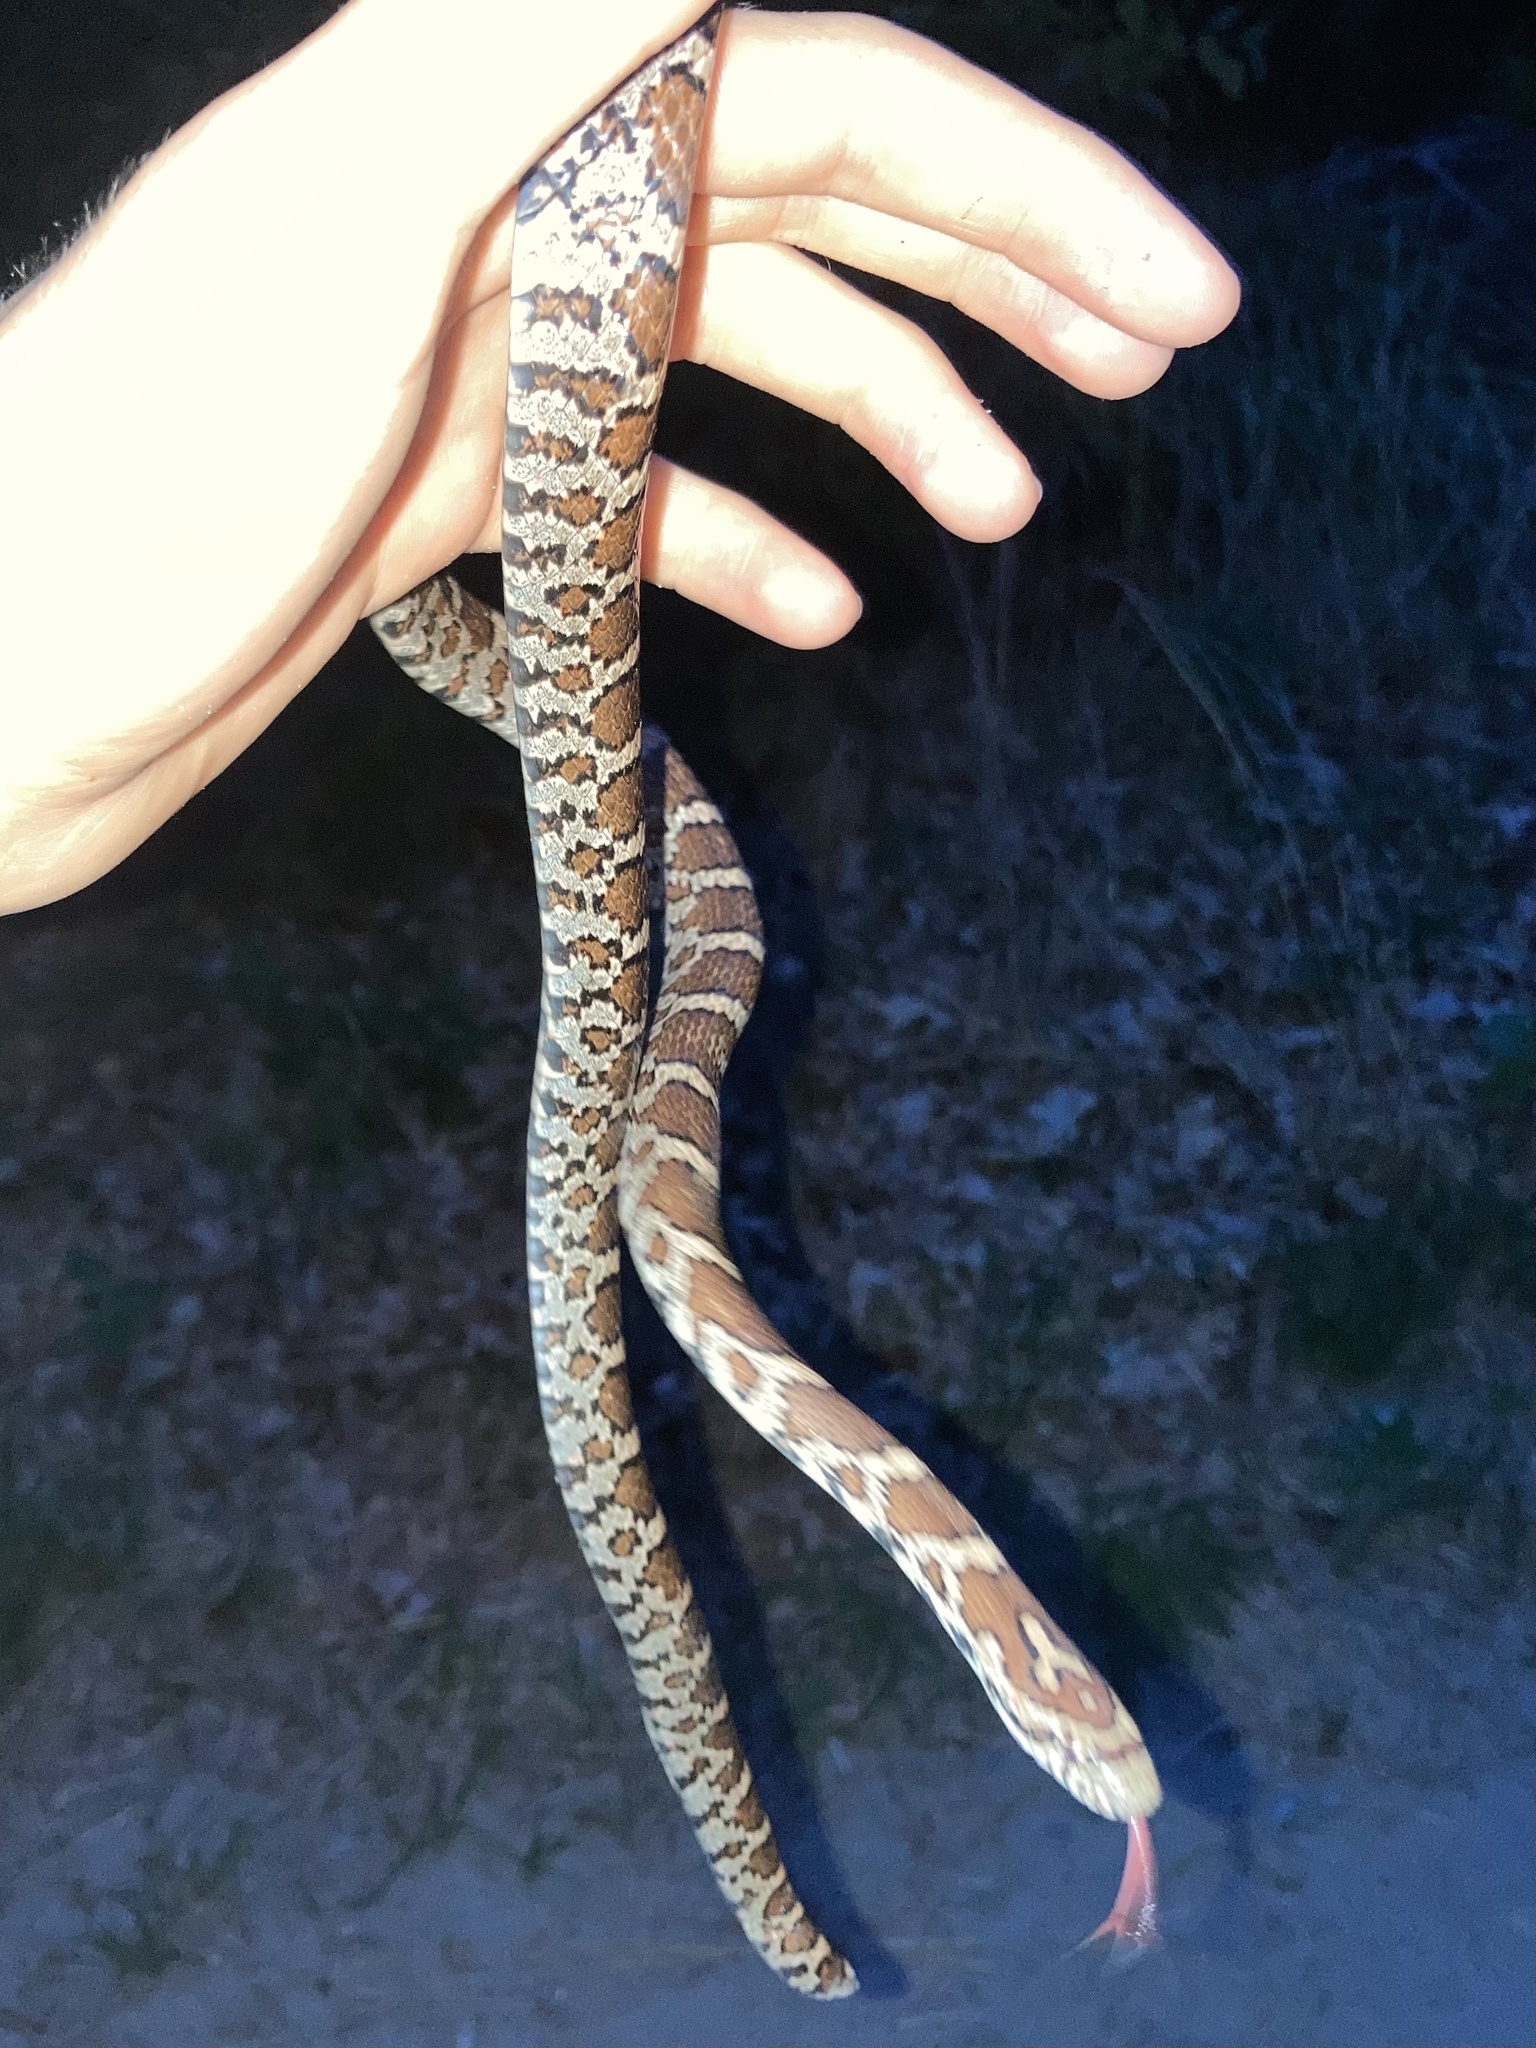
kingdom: Animalia
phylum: Chordata
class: Squamata
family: Colubridae
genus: Lampropeltis
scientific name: Lampropeltis triangulum
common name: Eastern milksnake
